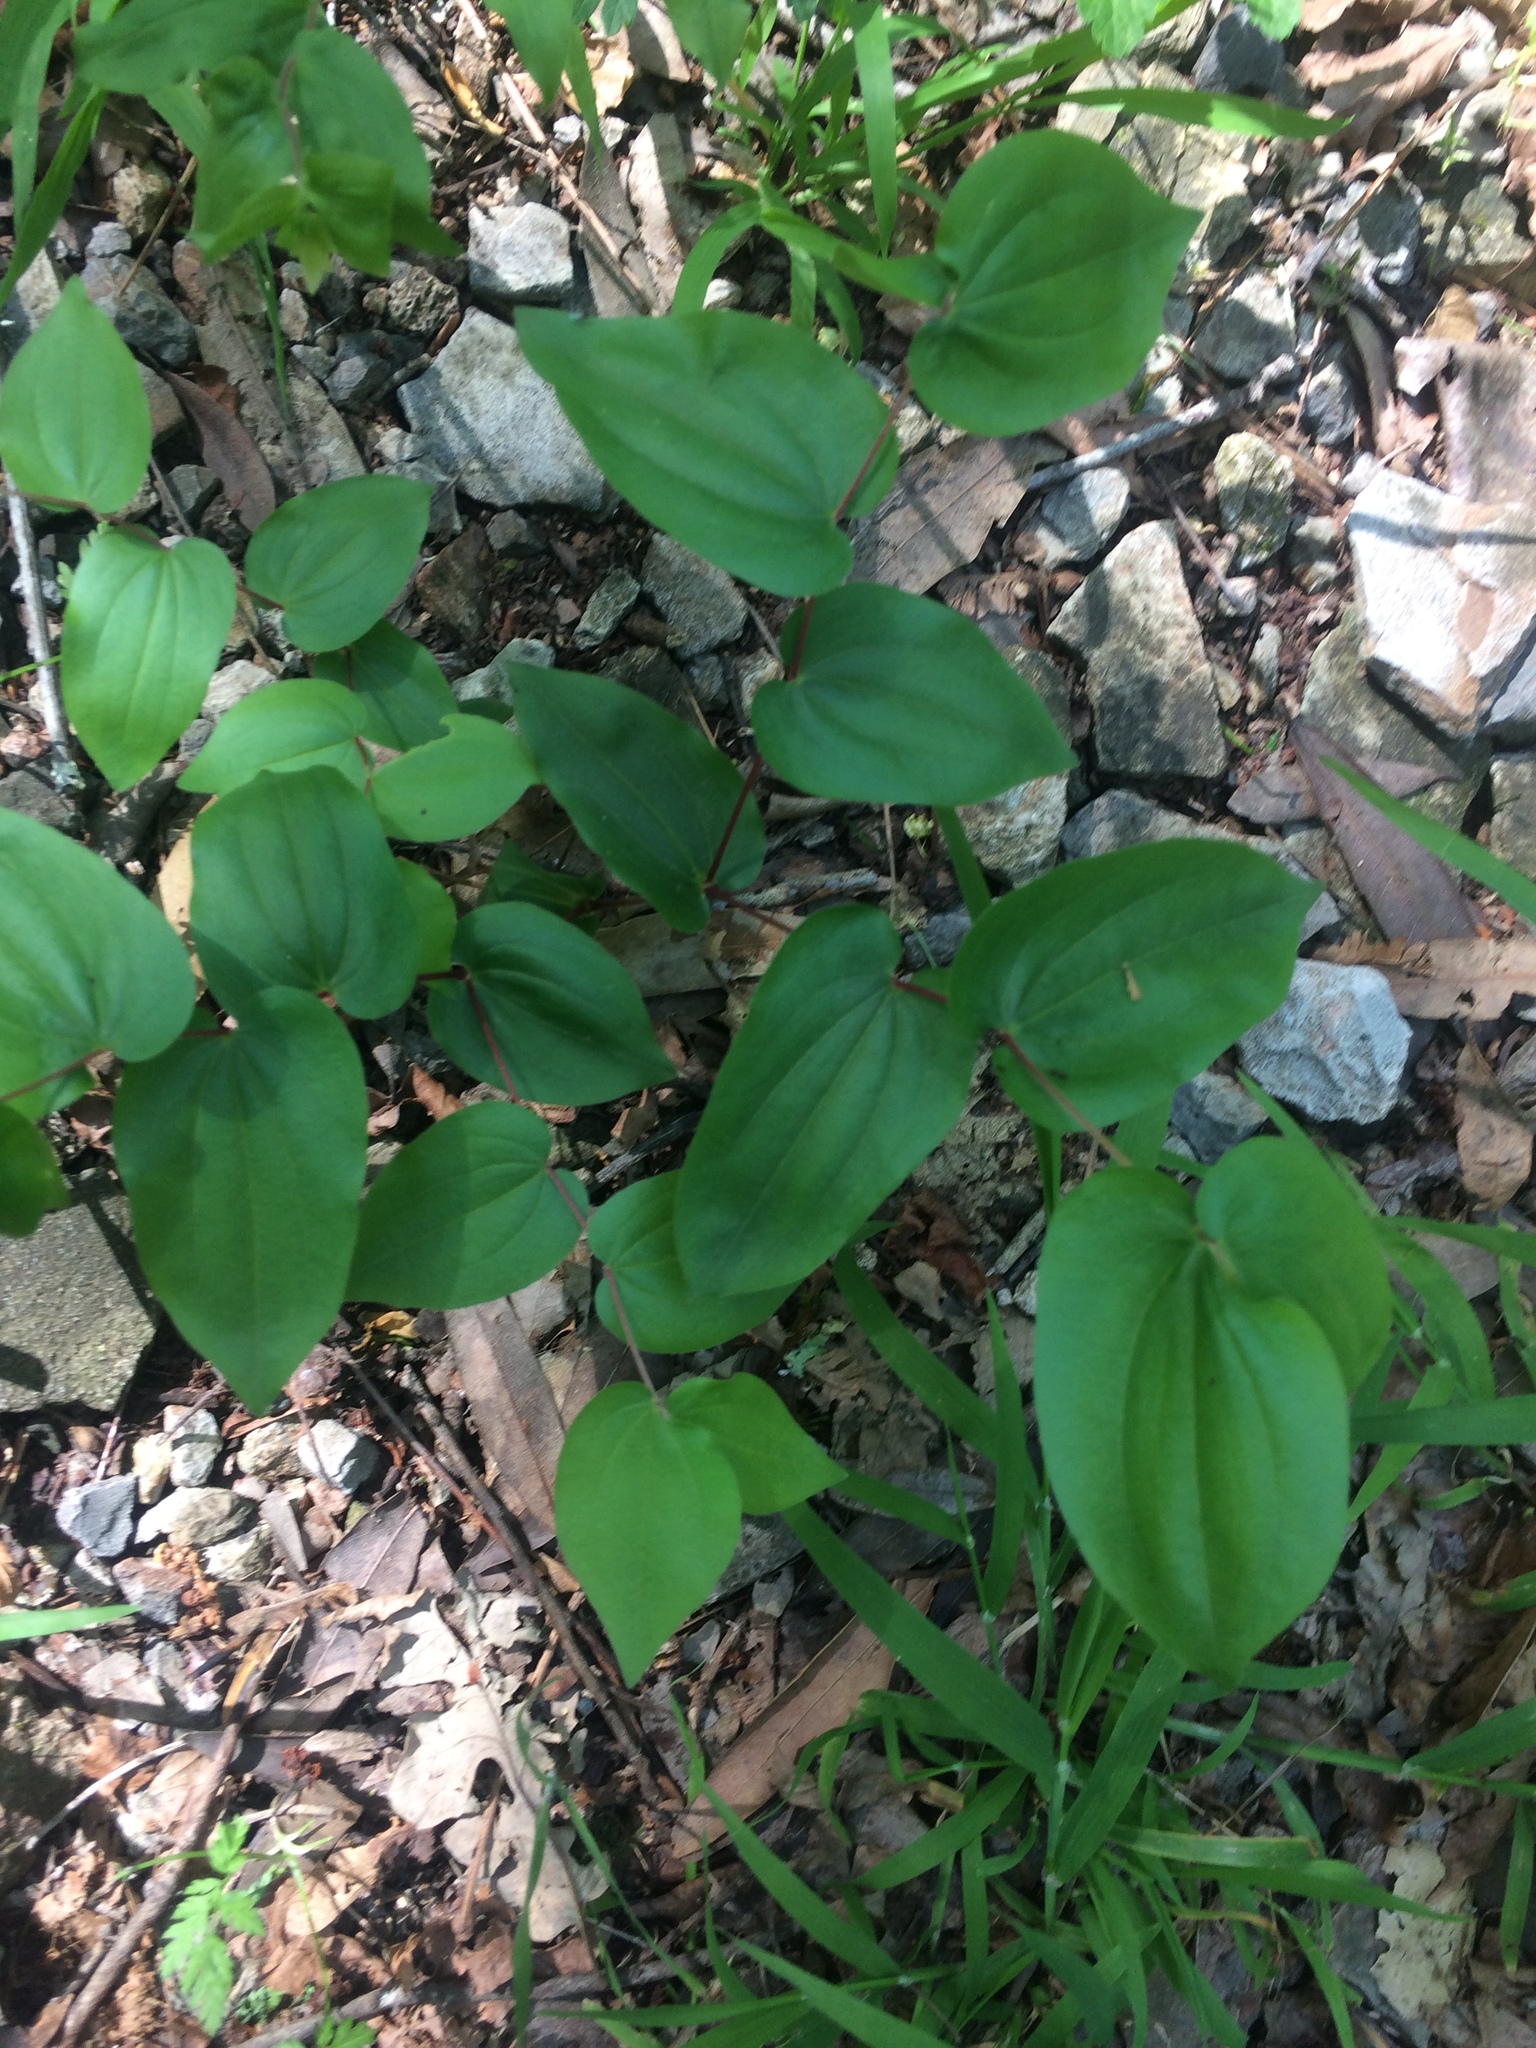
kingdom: Plantae
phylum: Tracheophyta
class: Liliopsida
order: Liliales
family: Liliaceae
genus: Prosartes
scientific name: Prosartes hookeri
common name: Fairy-bells
